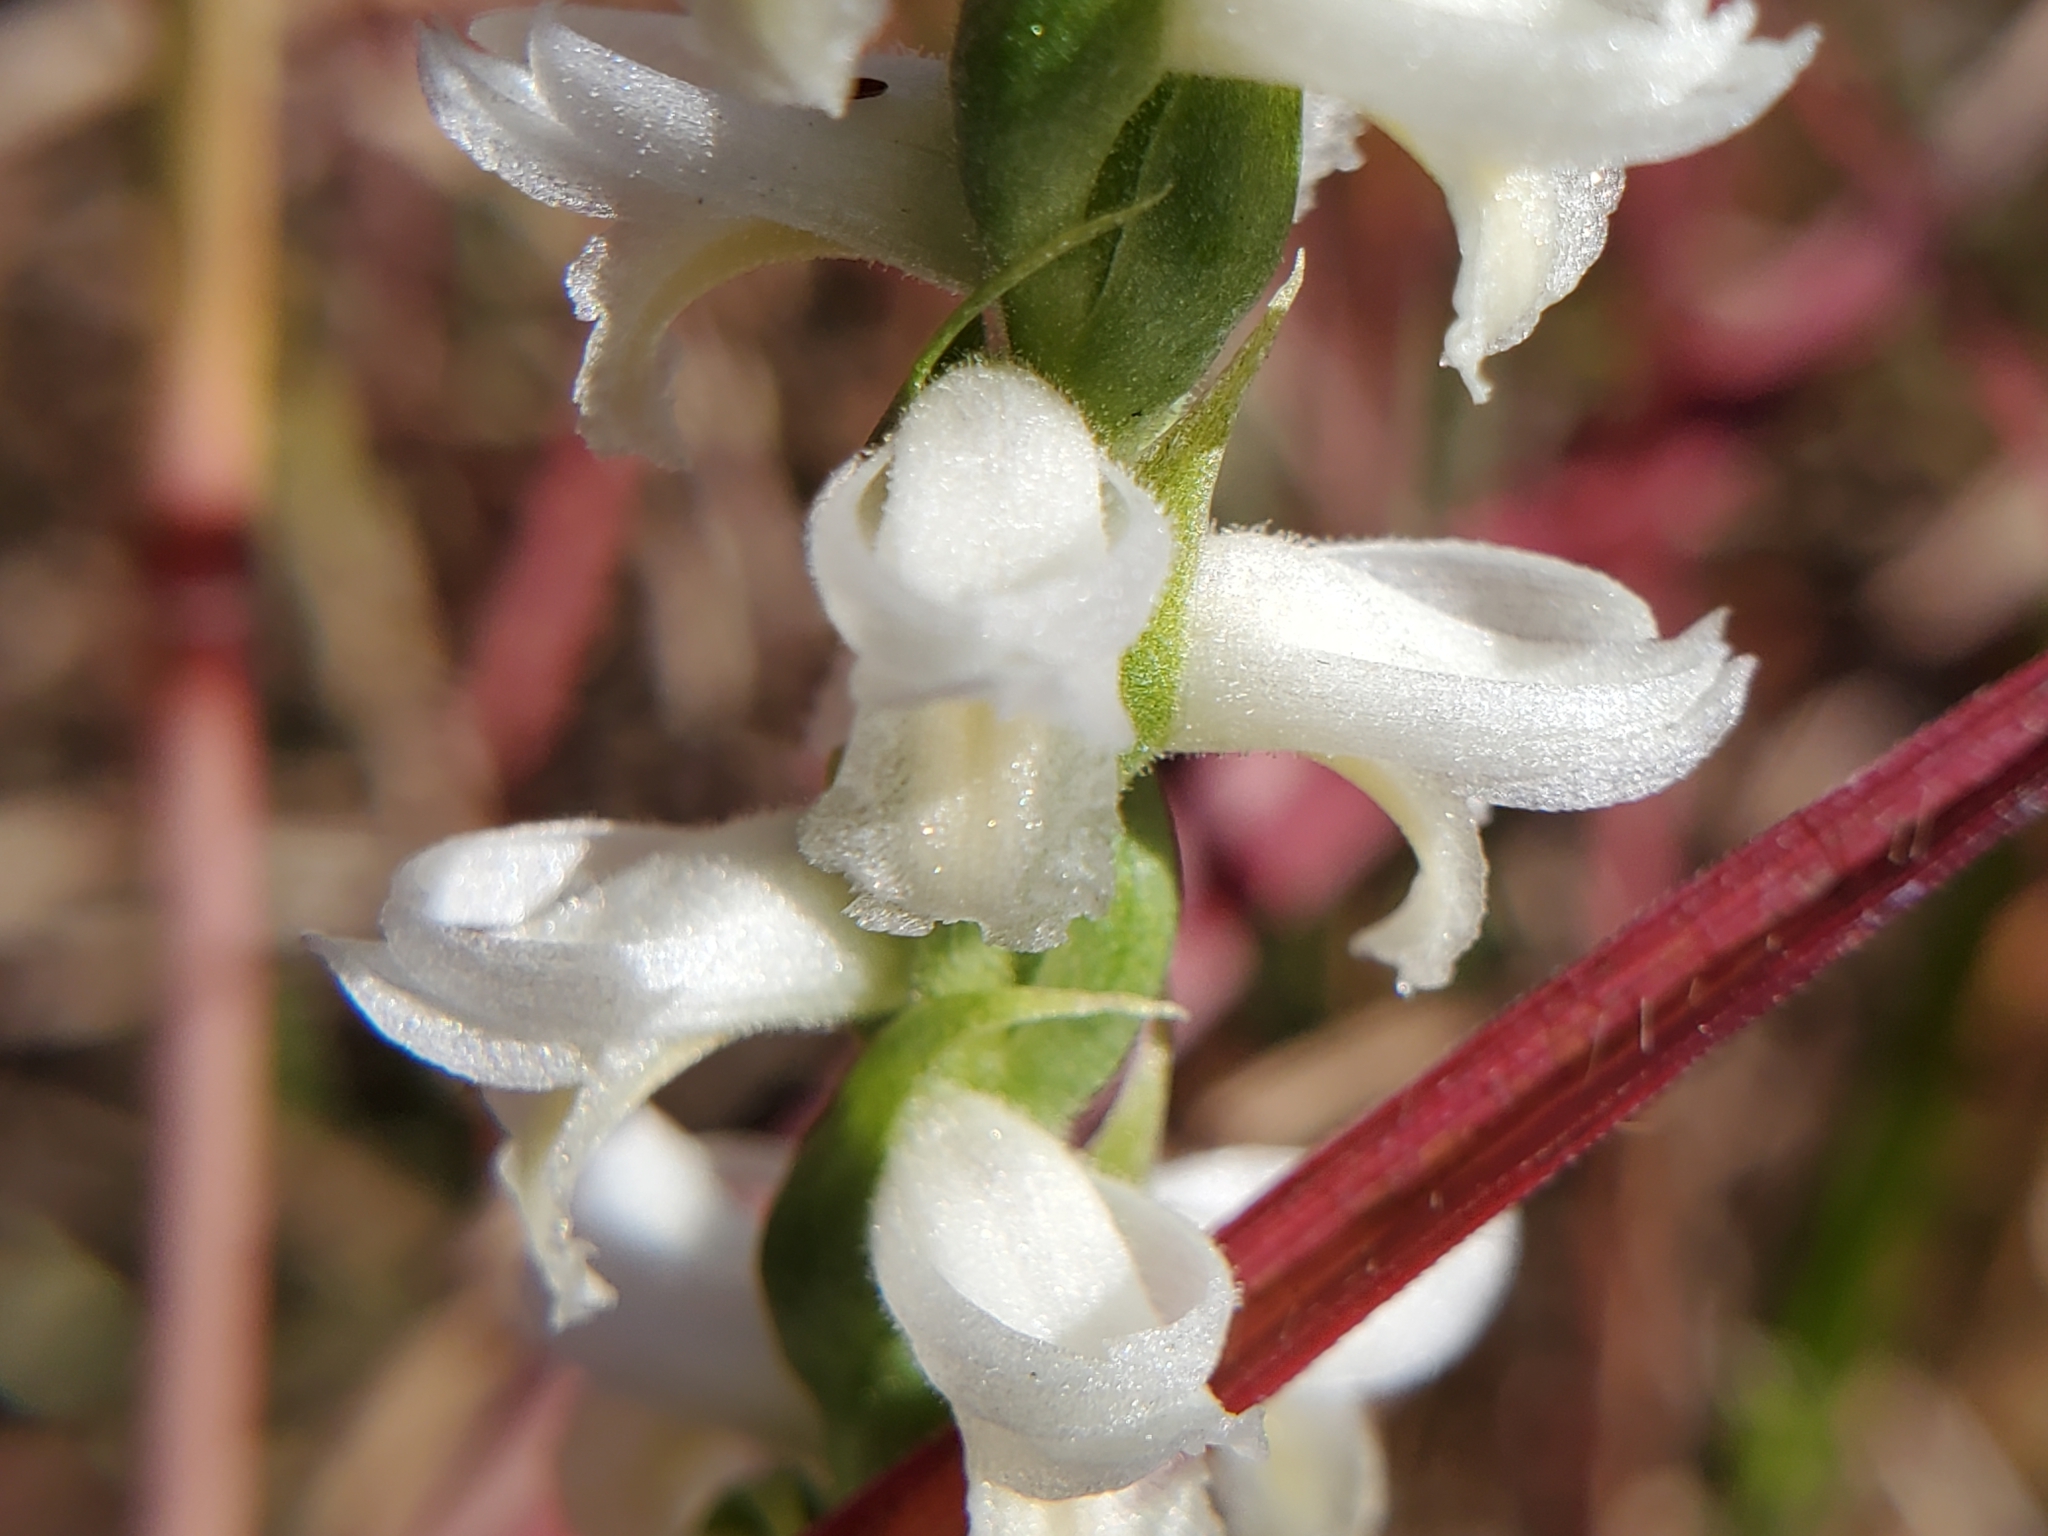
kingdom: Plantae
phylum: Tracheophyta
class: Liliopsida
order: Asparagales
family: Orchidaceae
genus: Spiranthes
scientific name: Spiranthes magnicamporum
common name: Great plains ladies'-tresses
